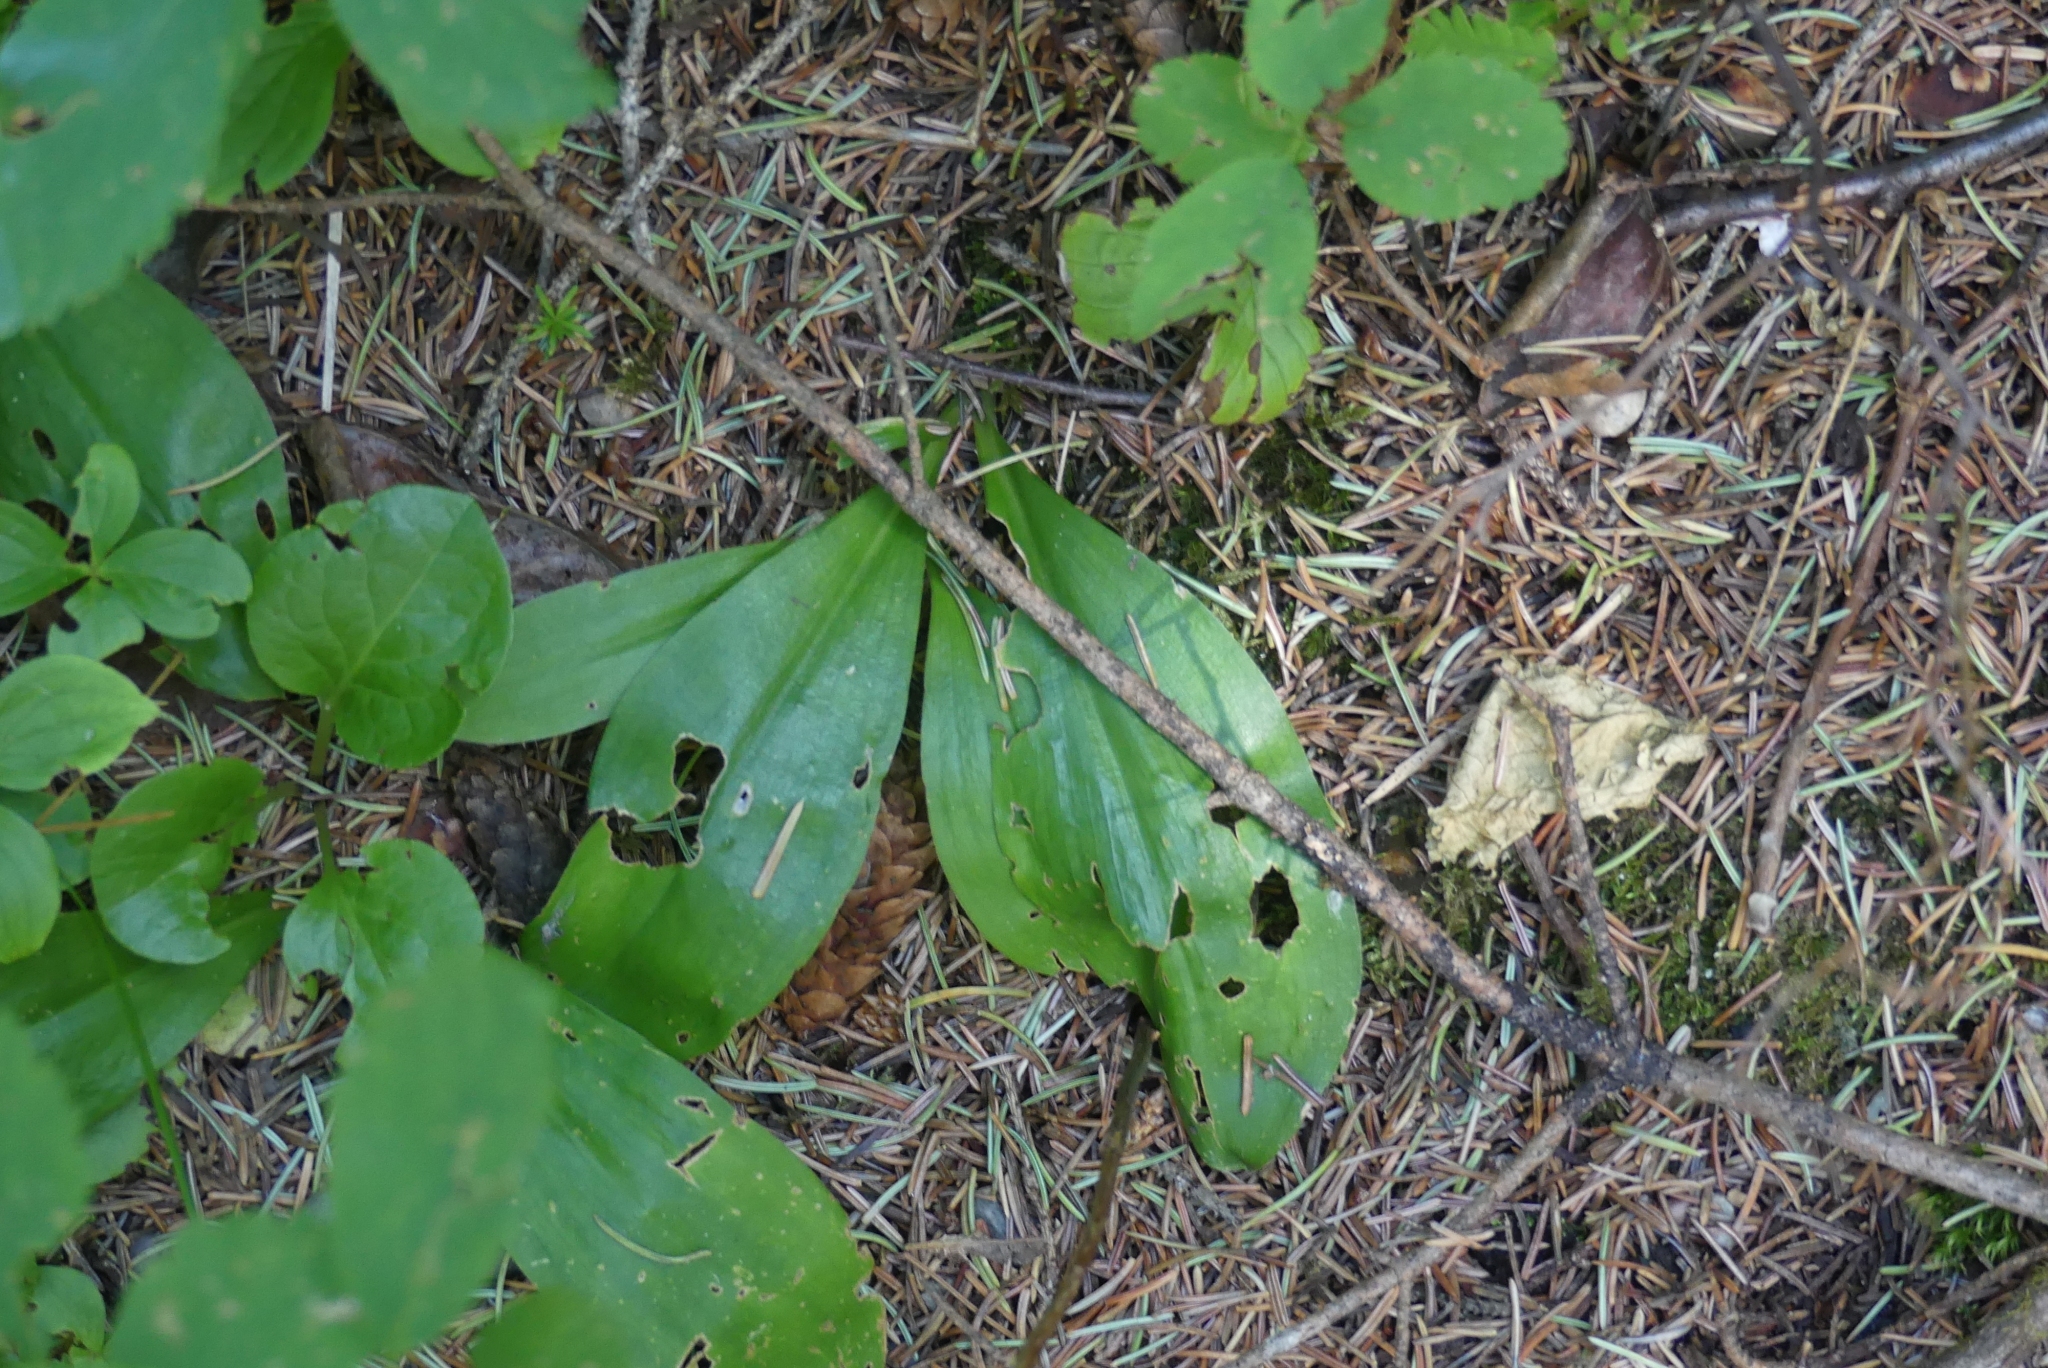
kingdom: Plantae
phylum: Tracheophyta
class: Liliopsida
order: Liliales
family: Liliaceae
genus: Clintonia
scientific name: Clintonia uniflora
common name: Queen's cup
